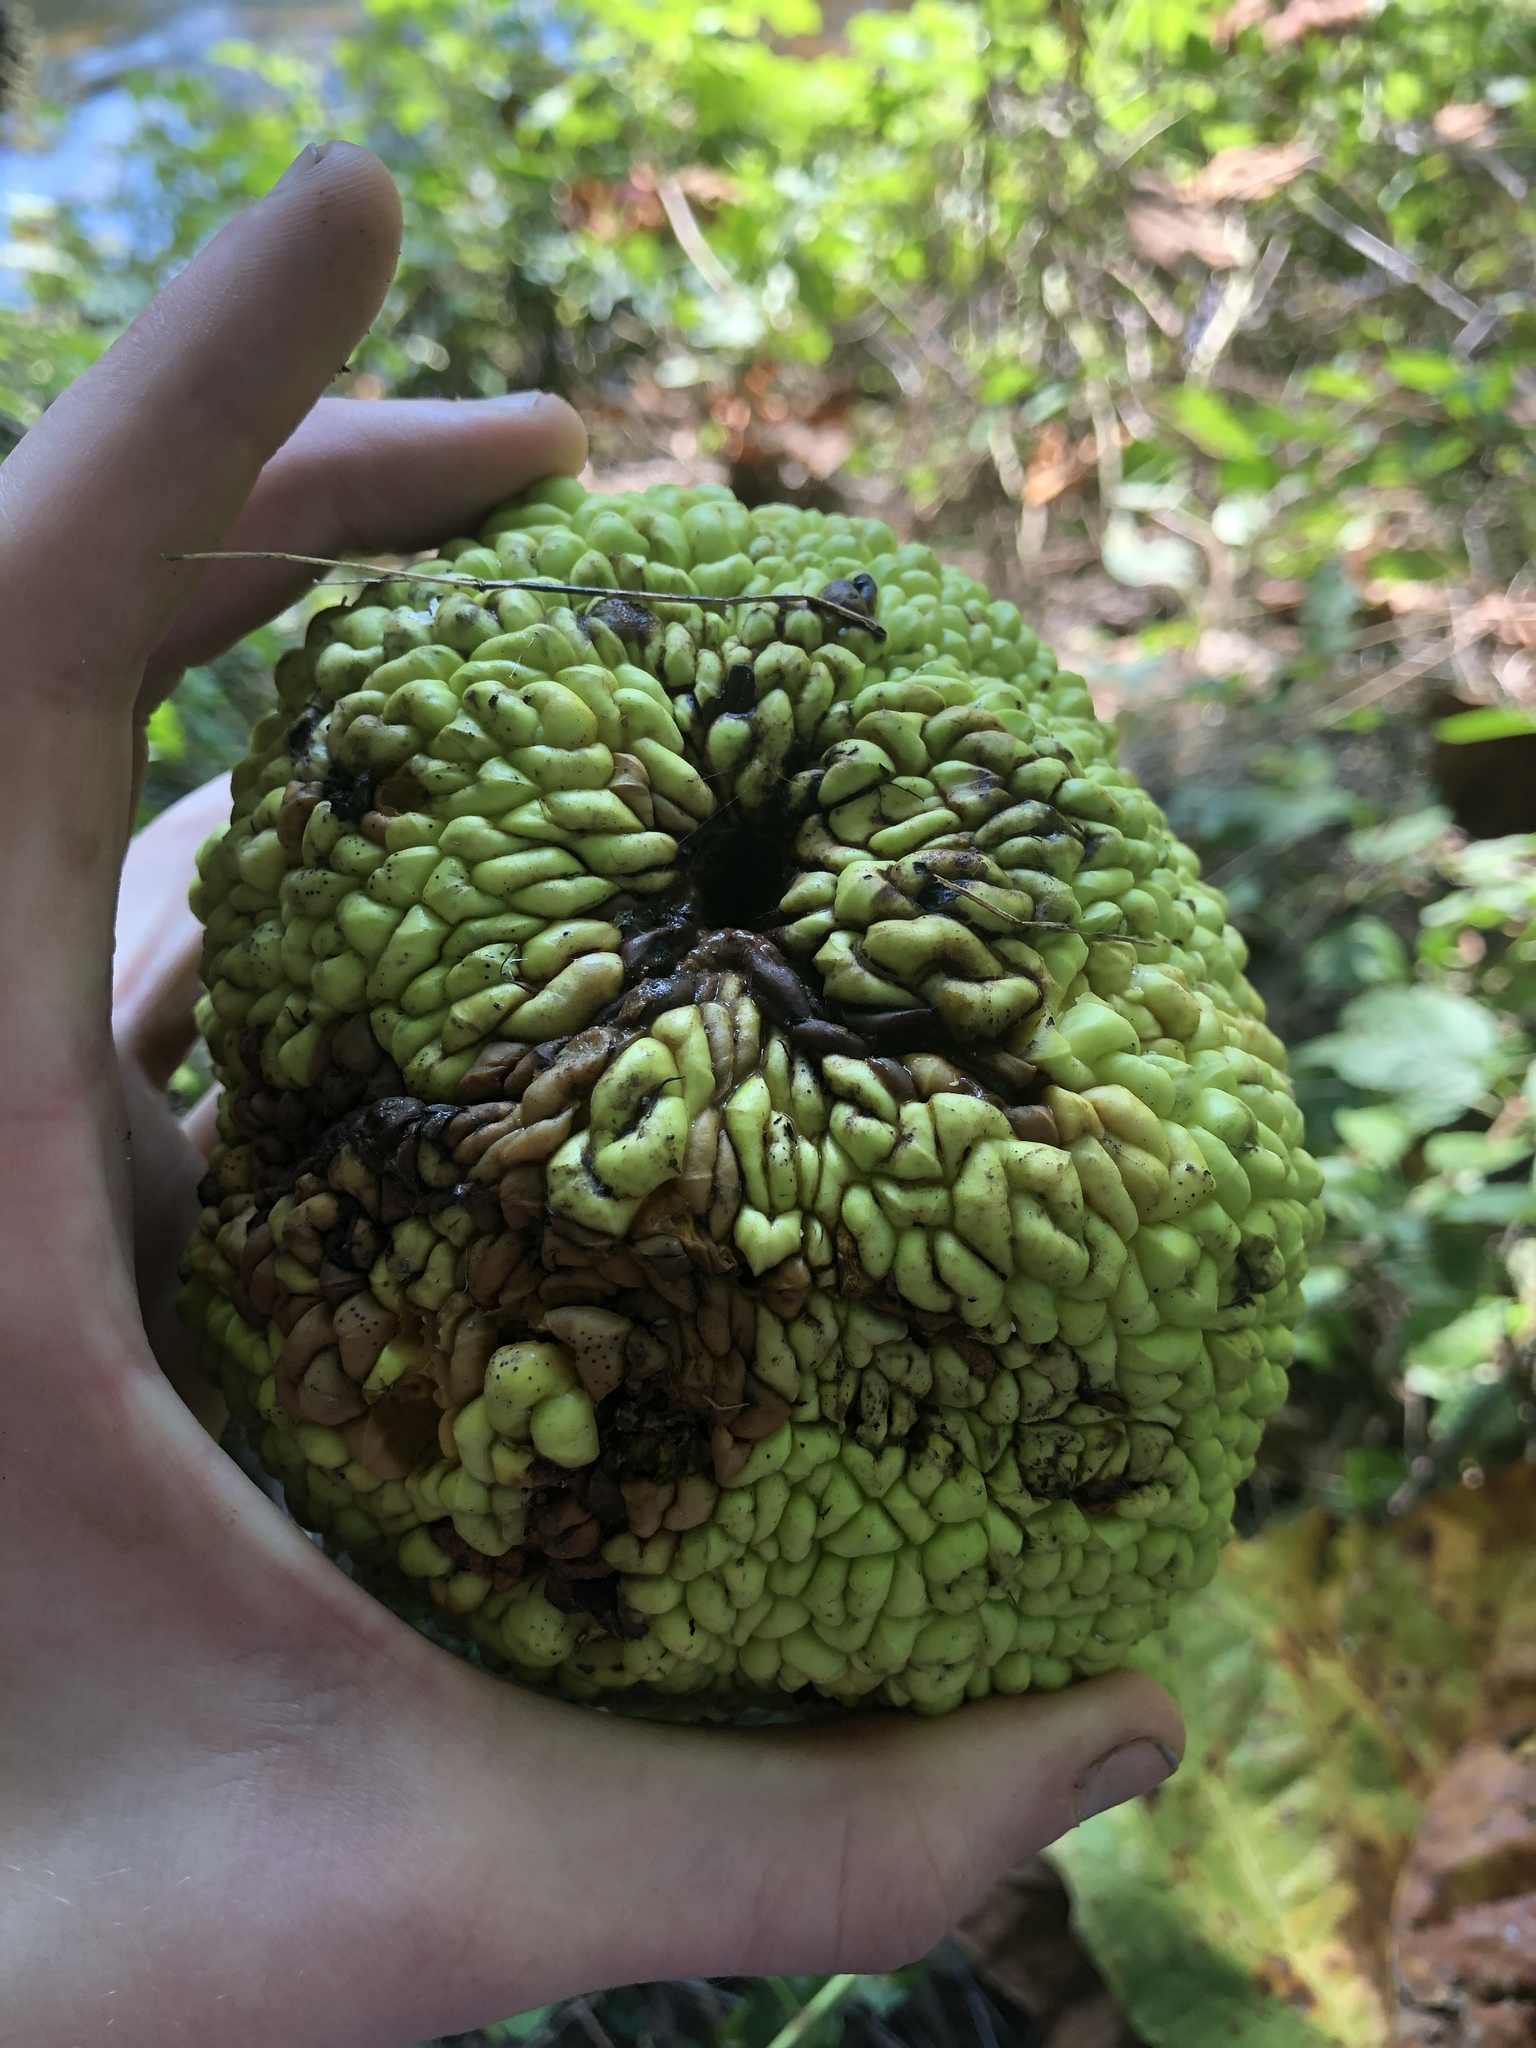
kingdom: Plantae
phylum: Tracheophyta
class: Magnoliopsida
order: Rosales
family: Moraceae
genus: Maclura
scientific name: Maclura pomifera
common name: Osage-orange
